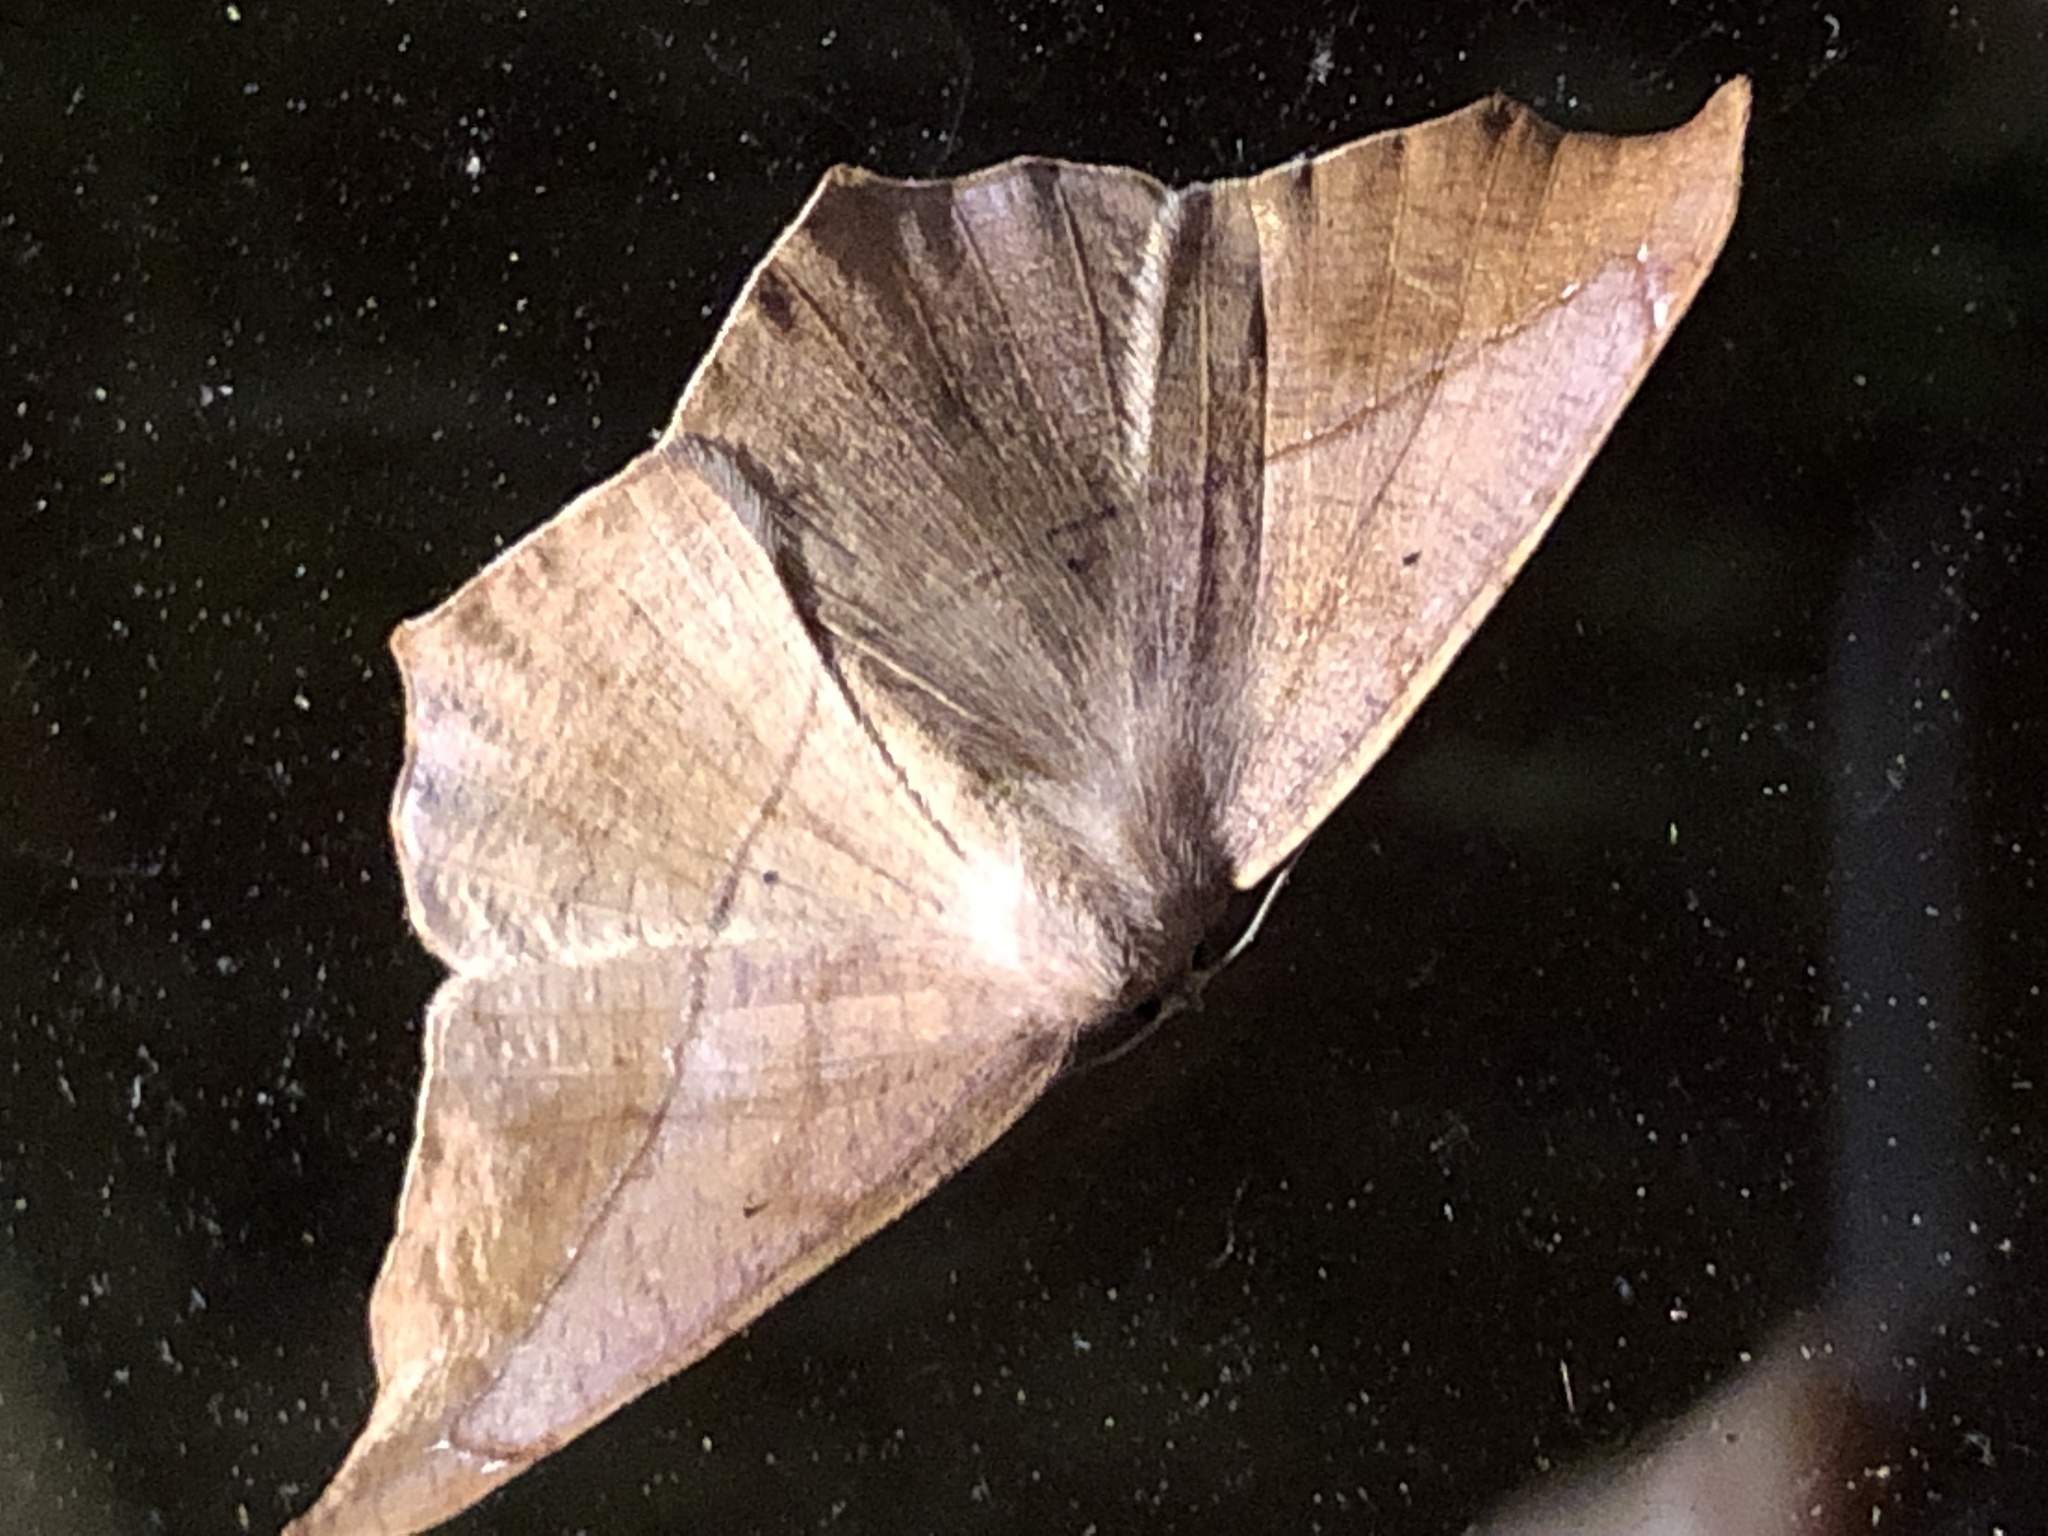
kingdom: Animalia
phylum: Arthropoda
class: Insecta
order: Lepidoptera
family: Geometridae
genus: Prochoerodes
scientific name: Prochoerodes lineola
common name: Large maple spanworm
